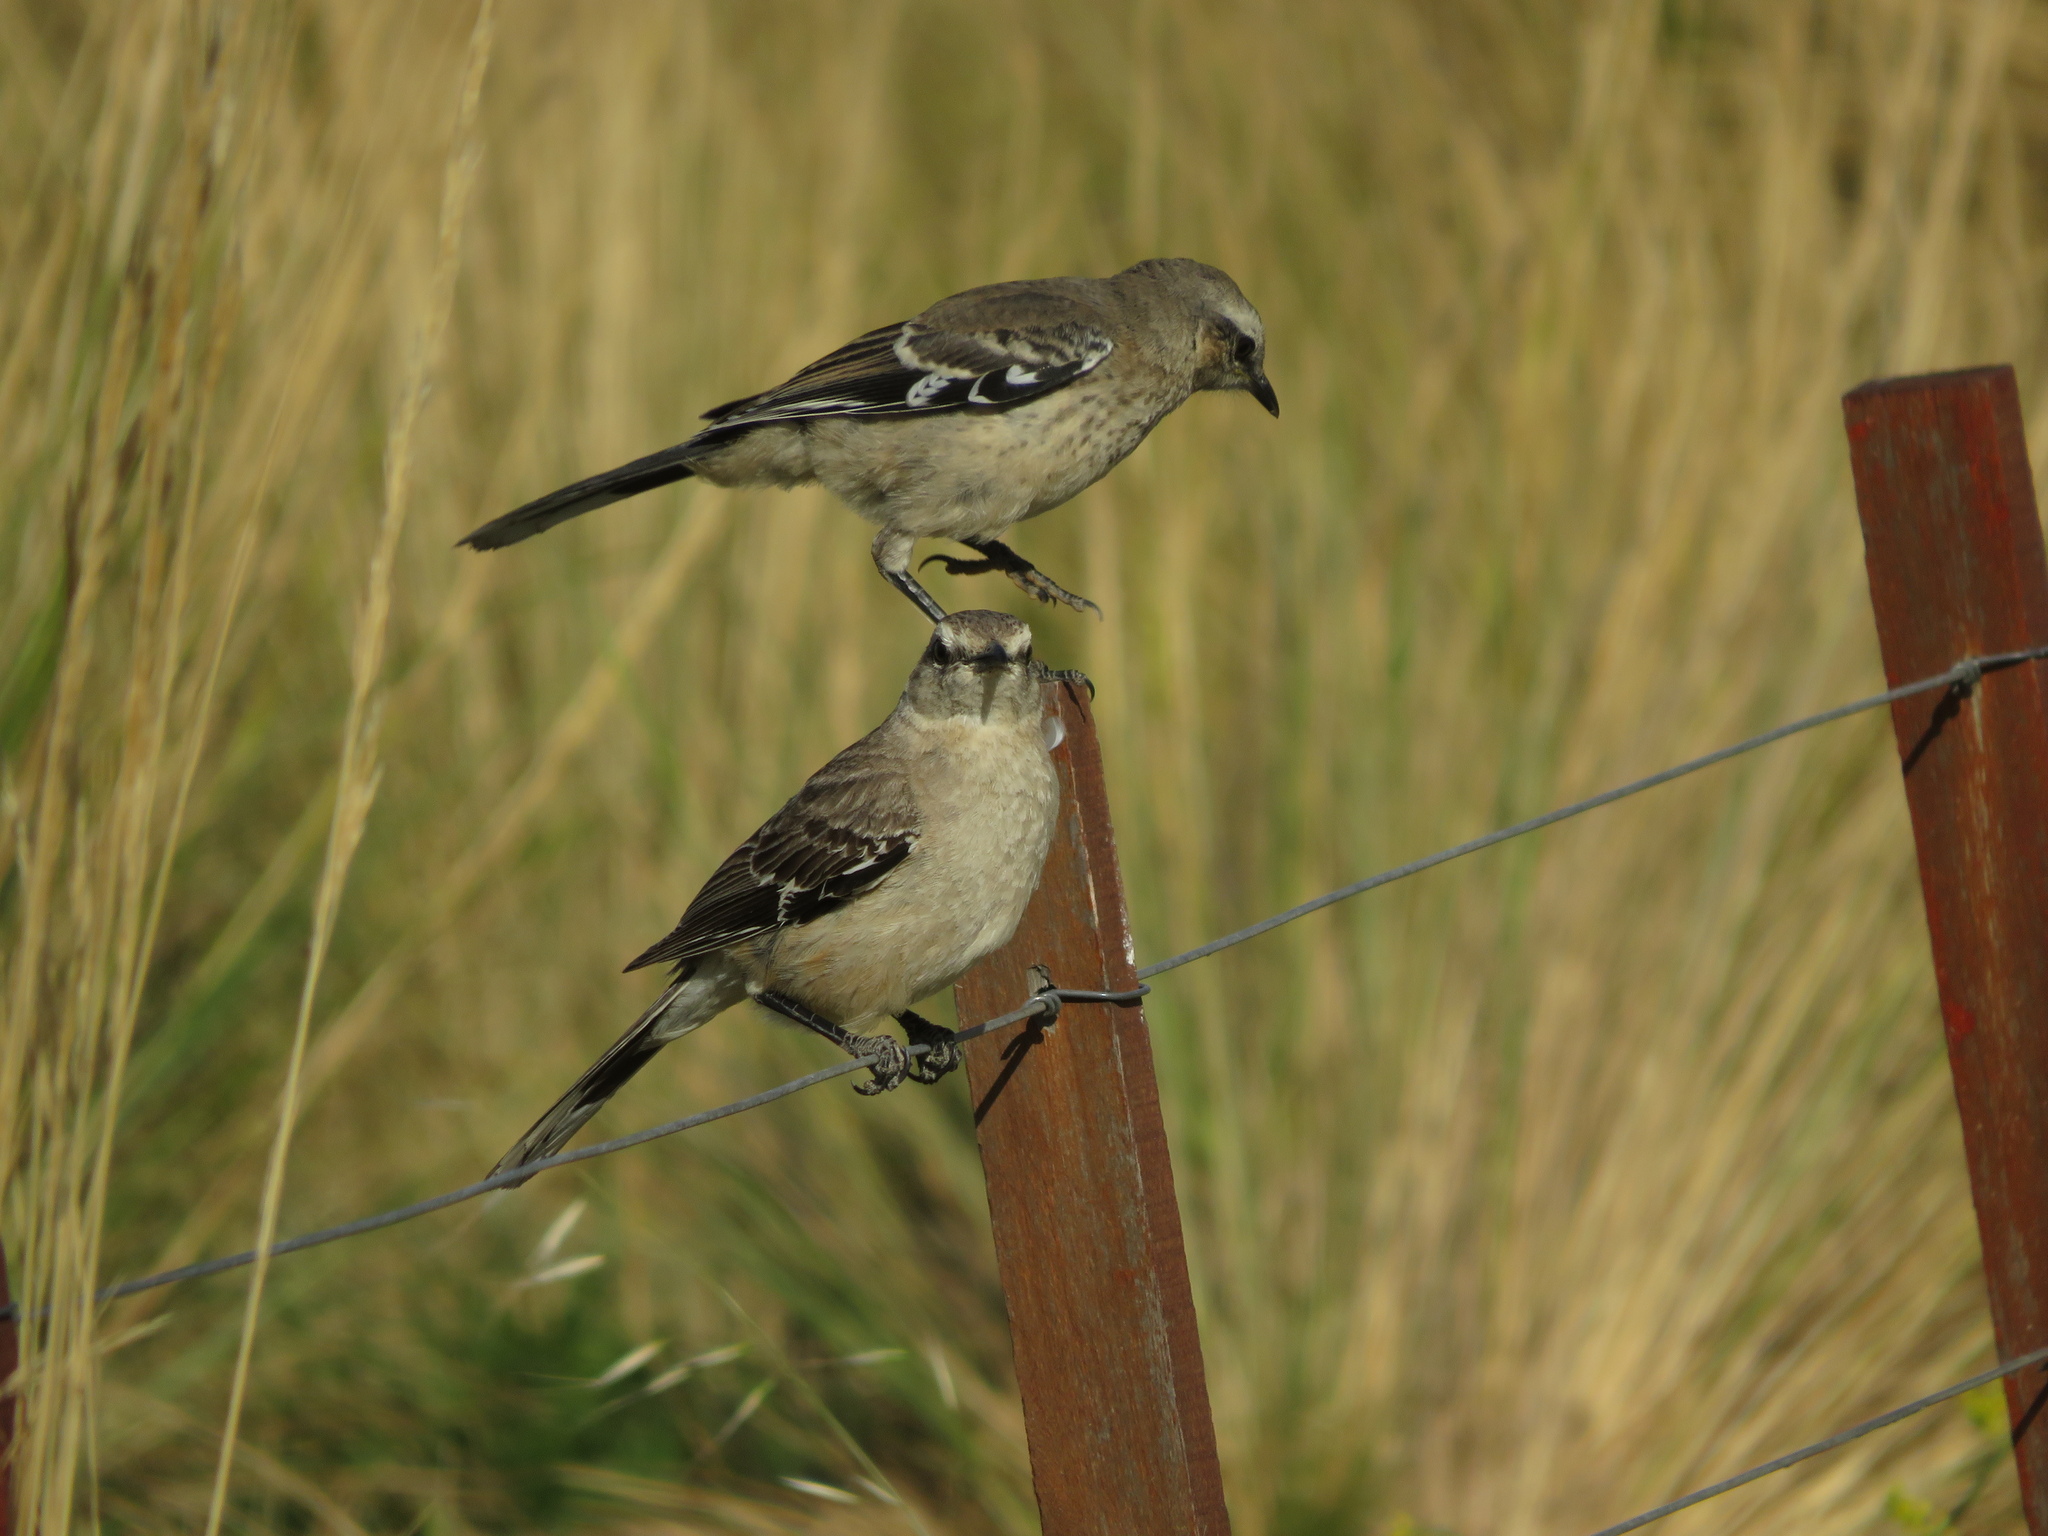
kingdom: Animalia
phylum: Chordata
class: Aves
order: Passeriformes
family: Mimidae
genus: Mimus
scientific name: Mimus patagonicus
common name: Patagonian mockingbird
